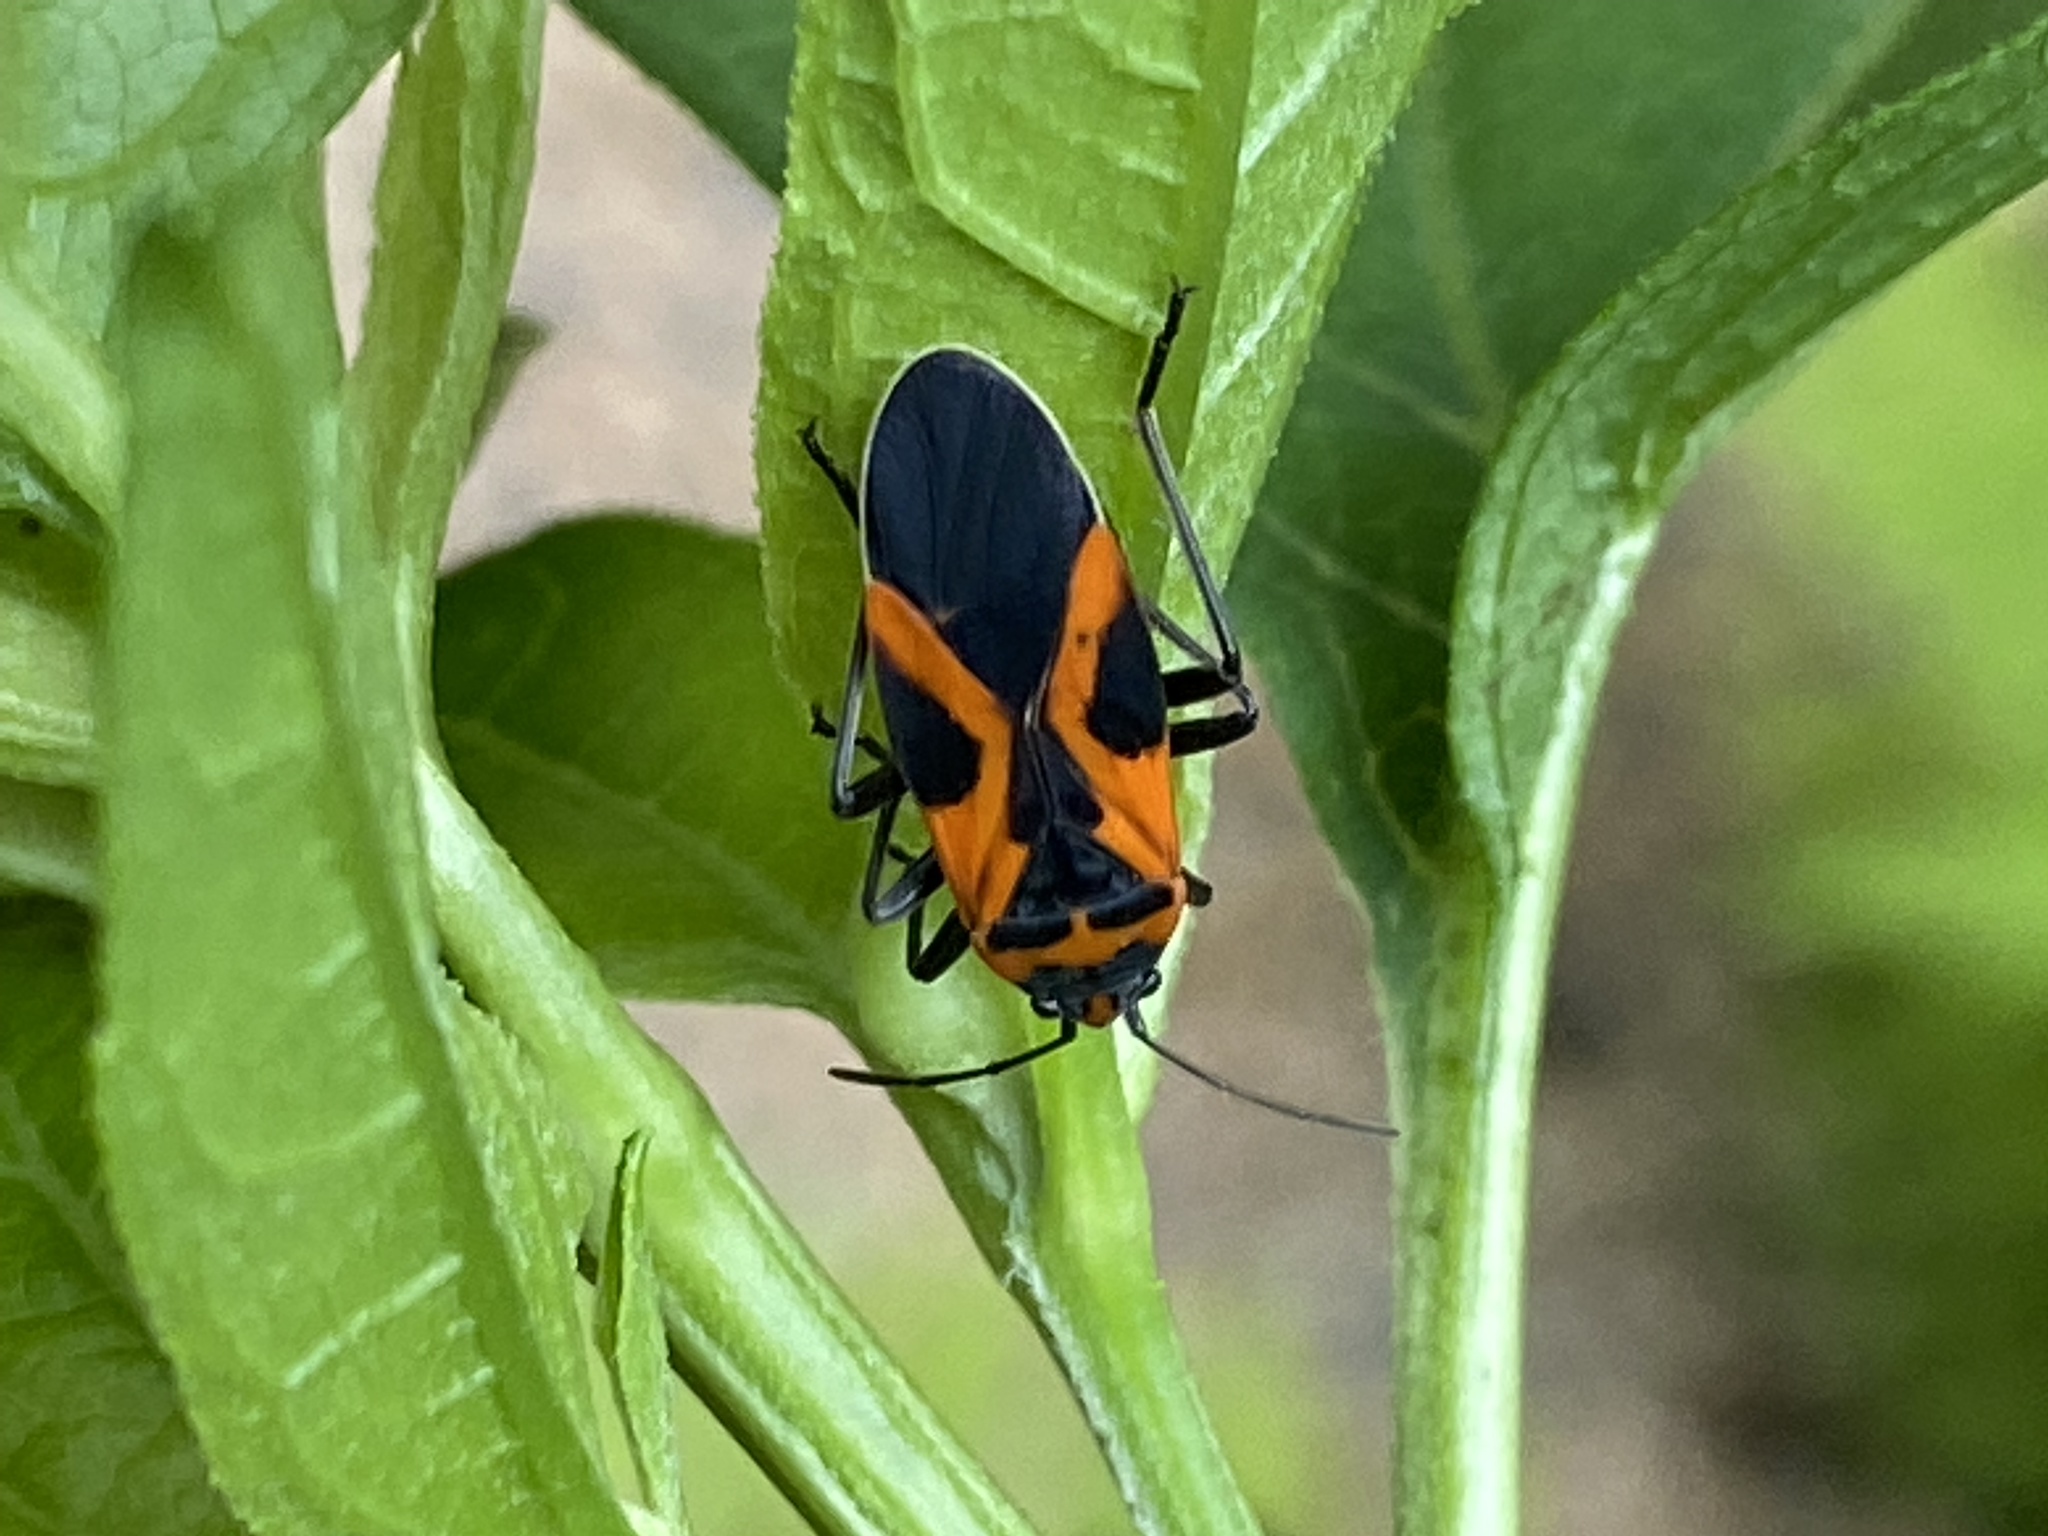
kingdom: Animalia
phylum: Arthropoda
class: Insecta
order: Hemiptera
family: Lygaeidae
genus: Lygaeus
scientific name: Lygaeus turcicus
